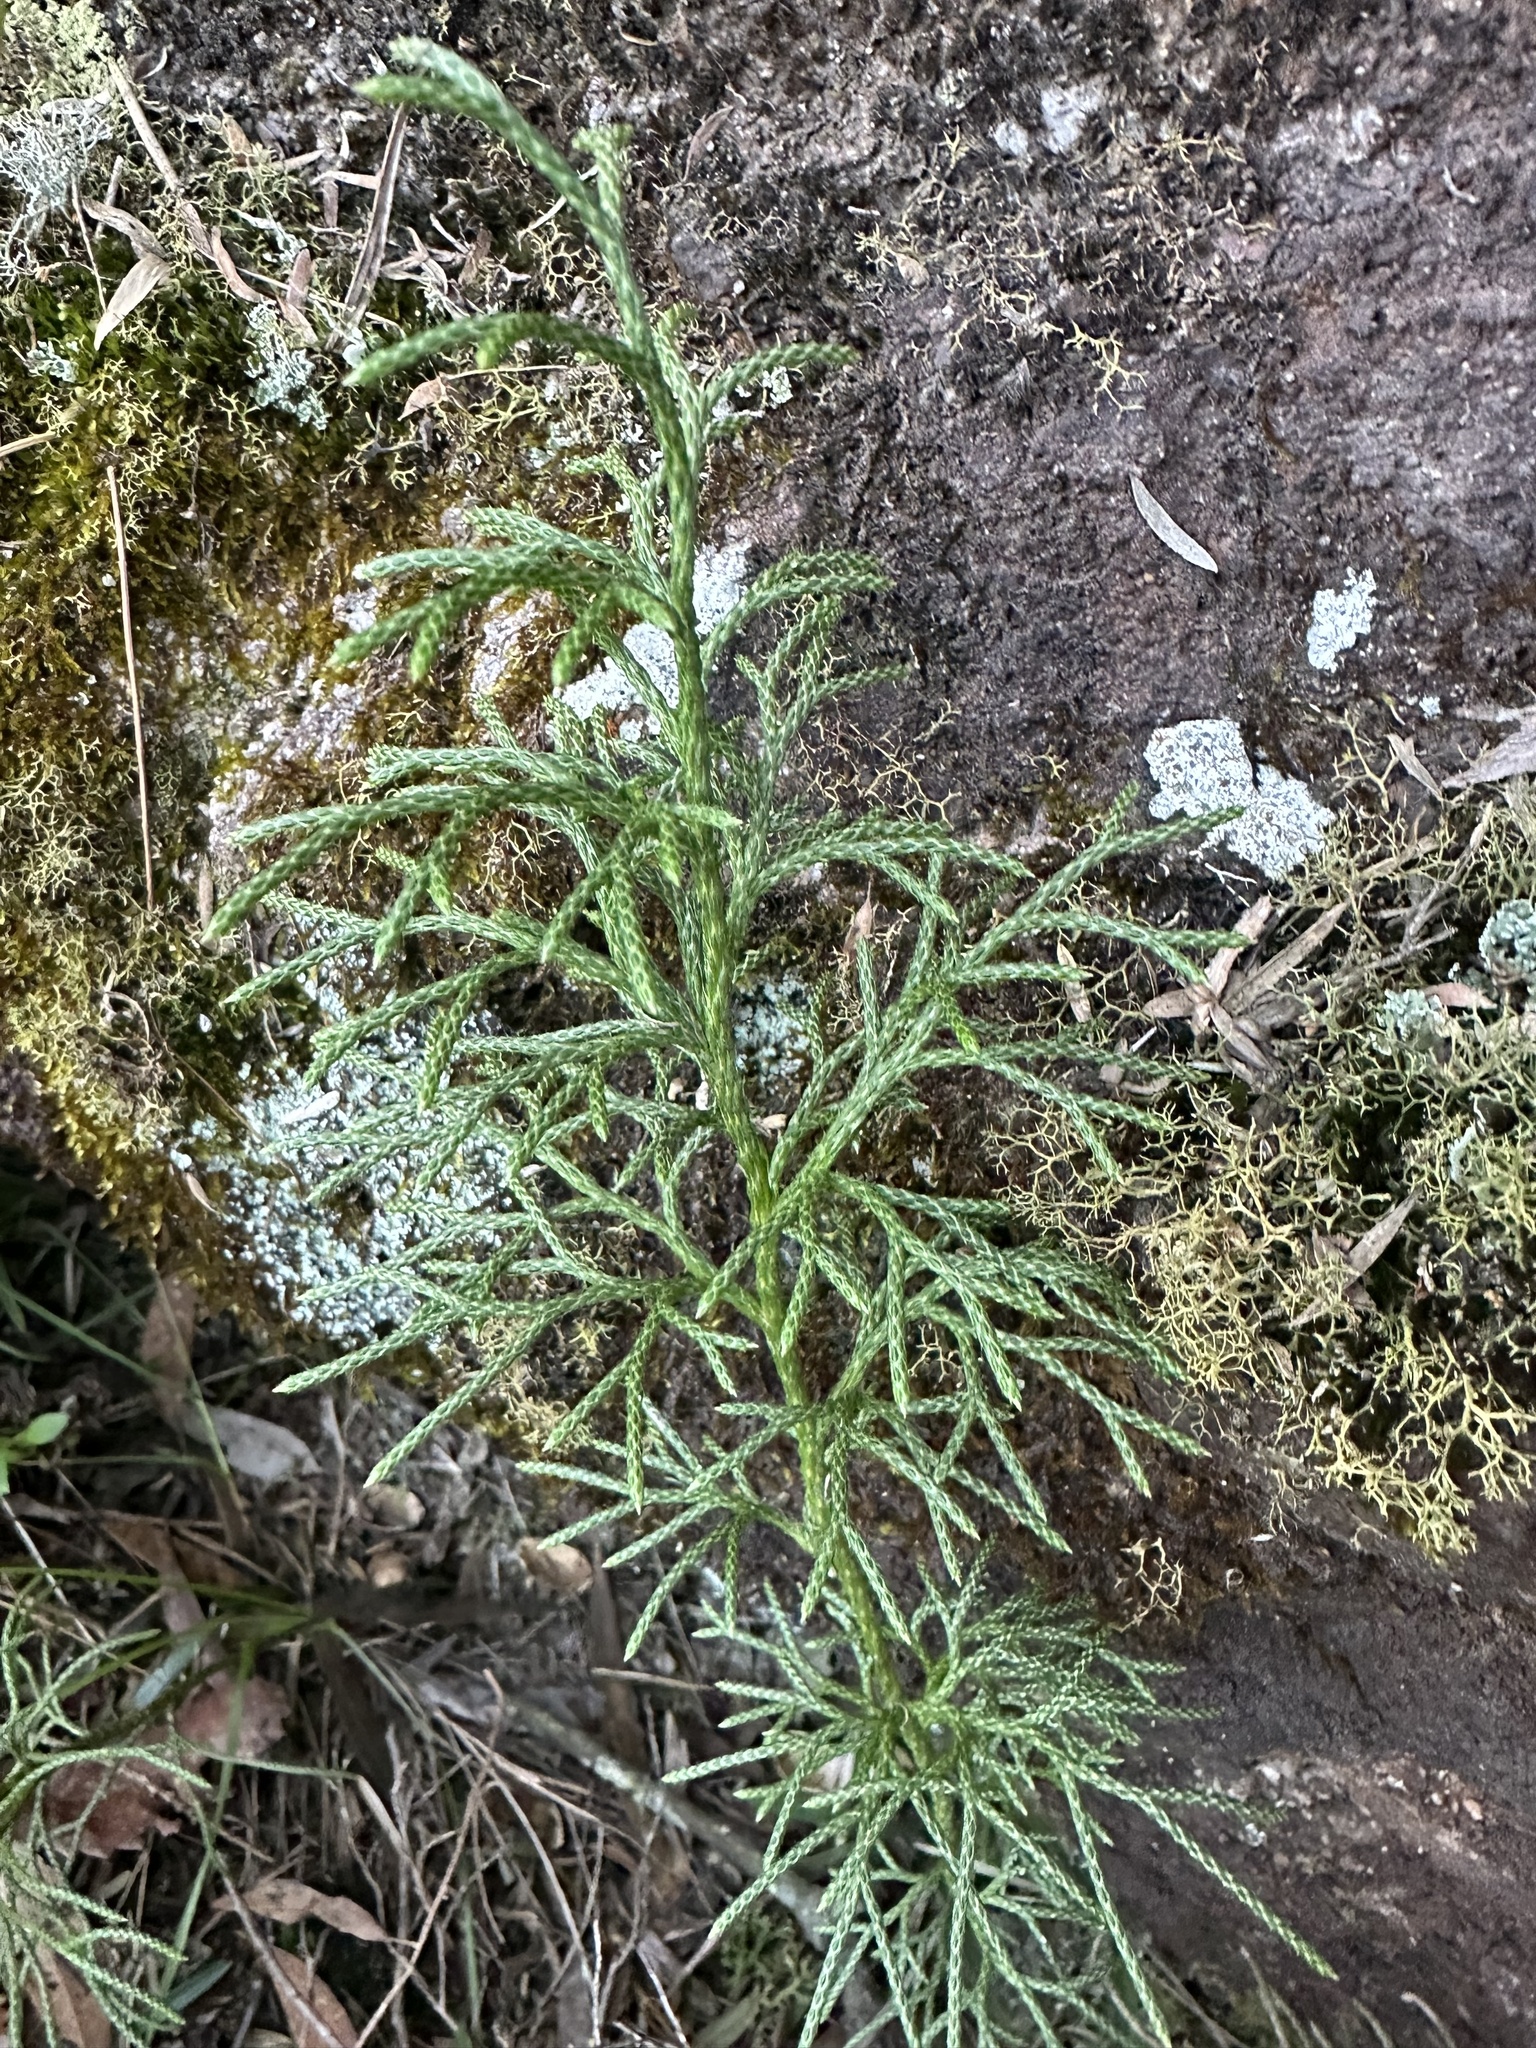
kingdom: Plantae
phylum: Tracheophyta
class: Lycopodiopsida
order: Lycopodiales
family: Lycopodiaceae
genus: Pseudolycopodium
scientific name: Pseudolycopodium densum
